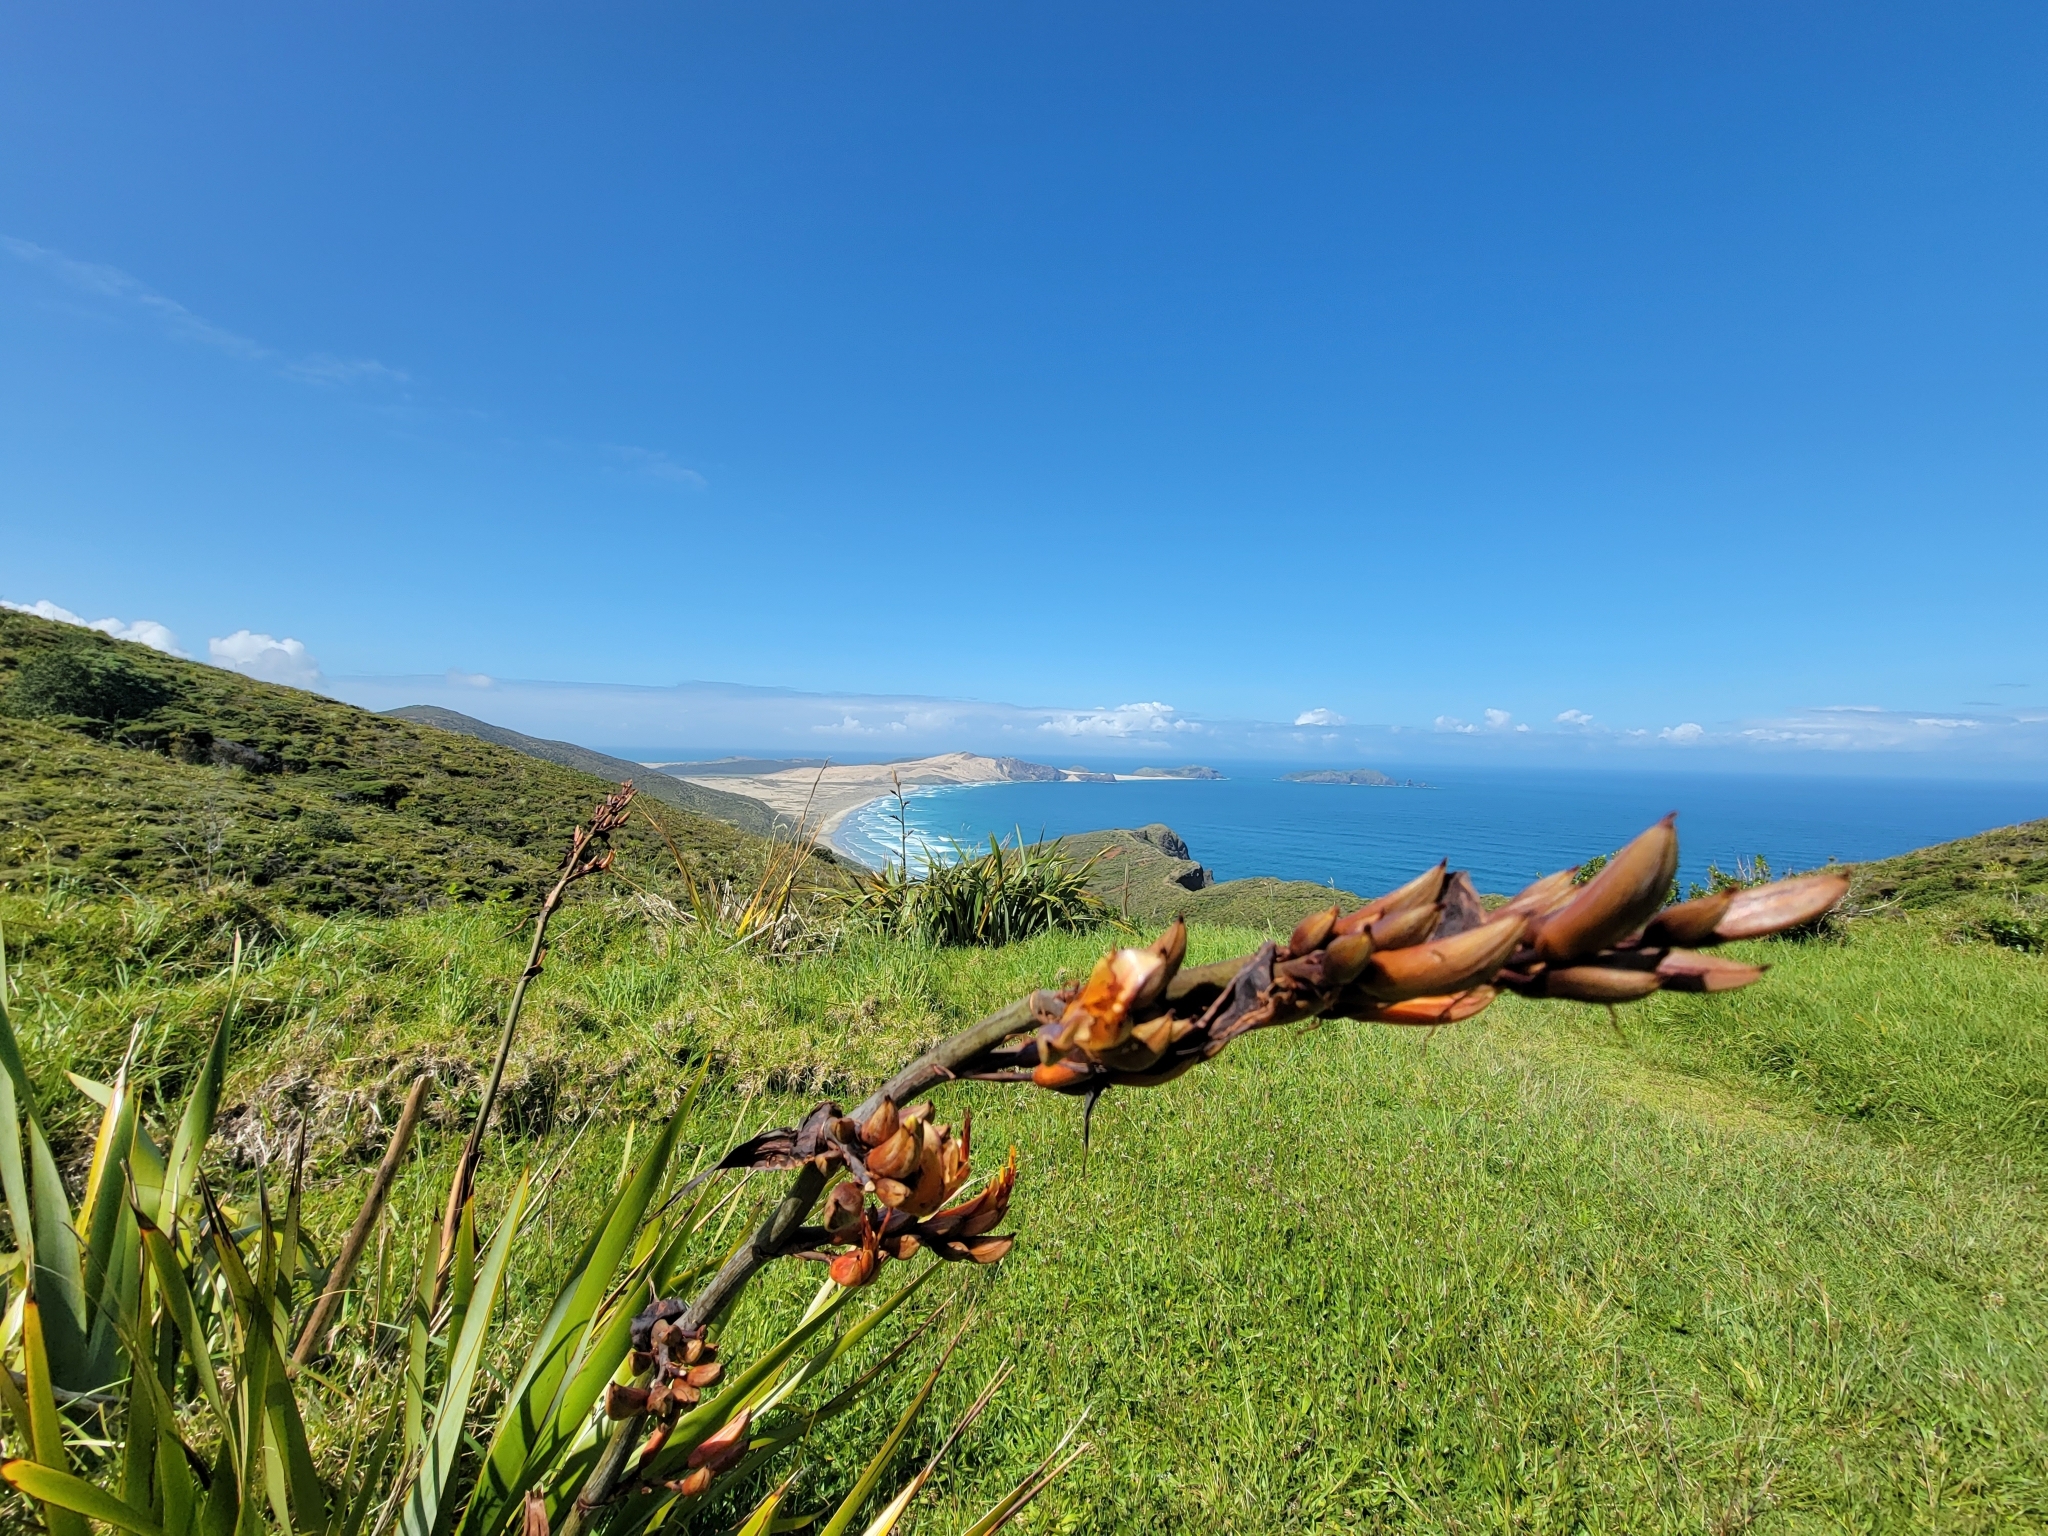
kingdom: Plantae
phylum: Tracheophyta
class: Liliopsida
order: Asparagales
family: Asphodelaceae
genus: Phormium
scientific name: Phormium tenax
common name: New zealand flax
